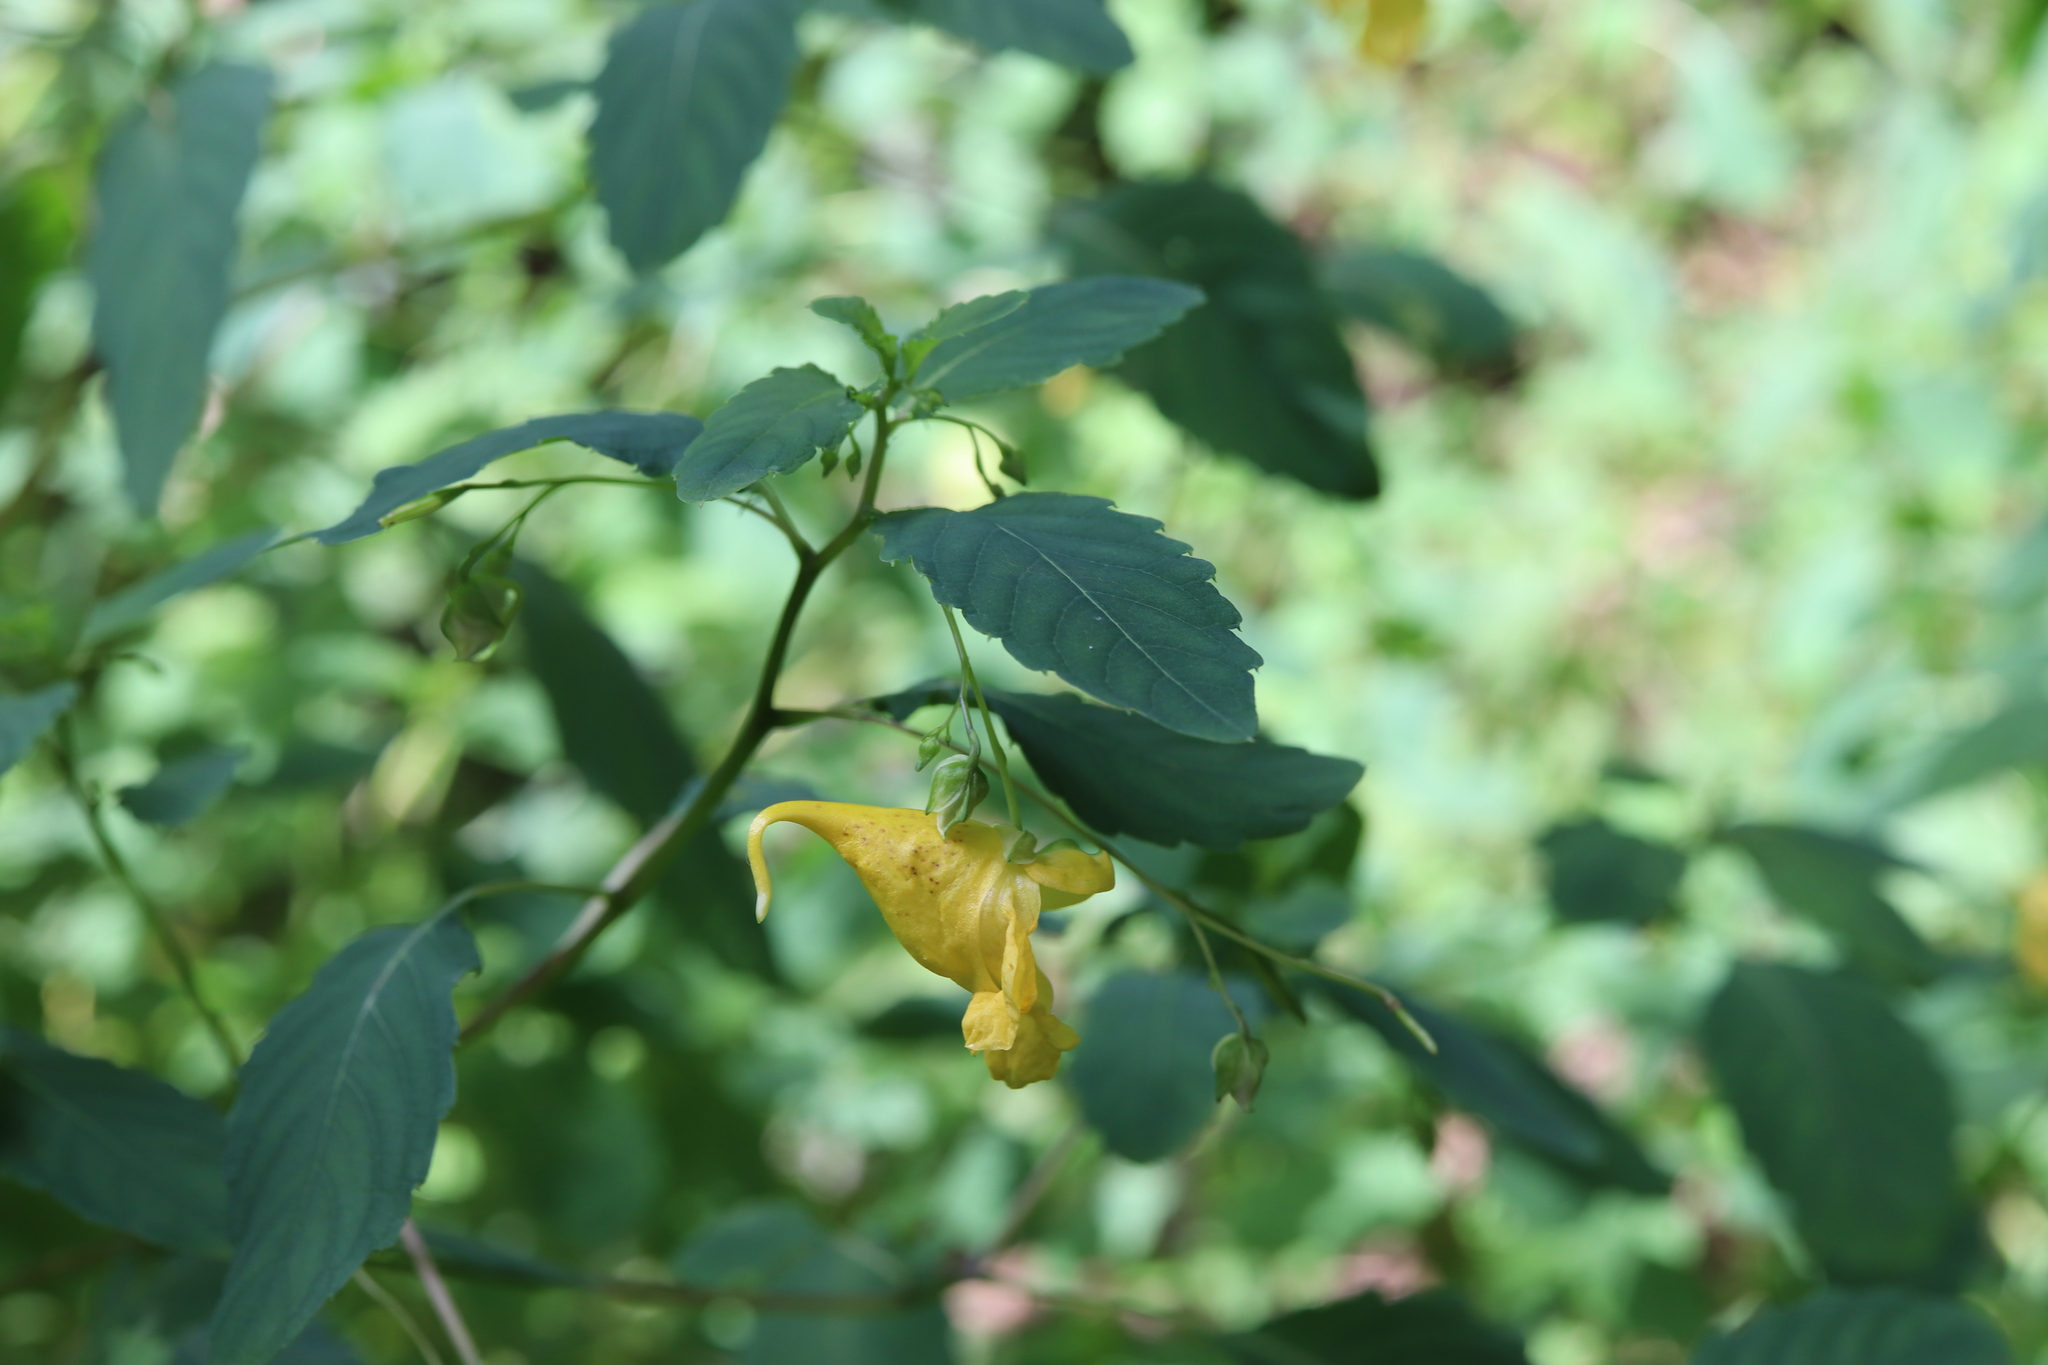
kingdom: Plantae
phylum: Tracheophyta
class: Magnoliopsida
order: Ericales
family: Balsaminaceae
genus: Impatiens
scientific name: Impatiens noli-tangere
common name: Touch-me-not balsam
